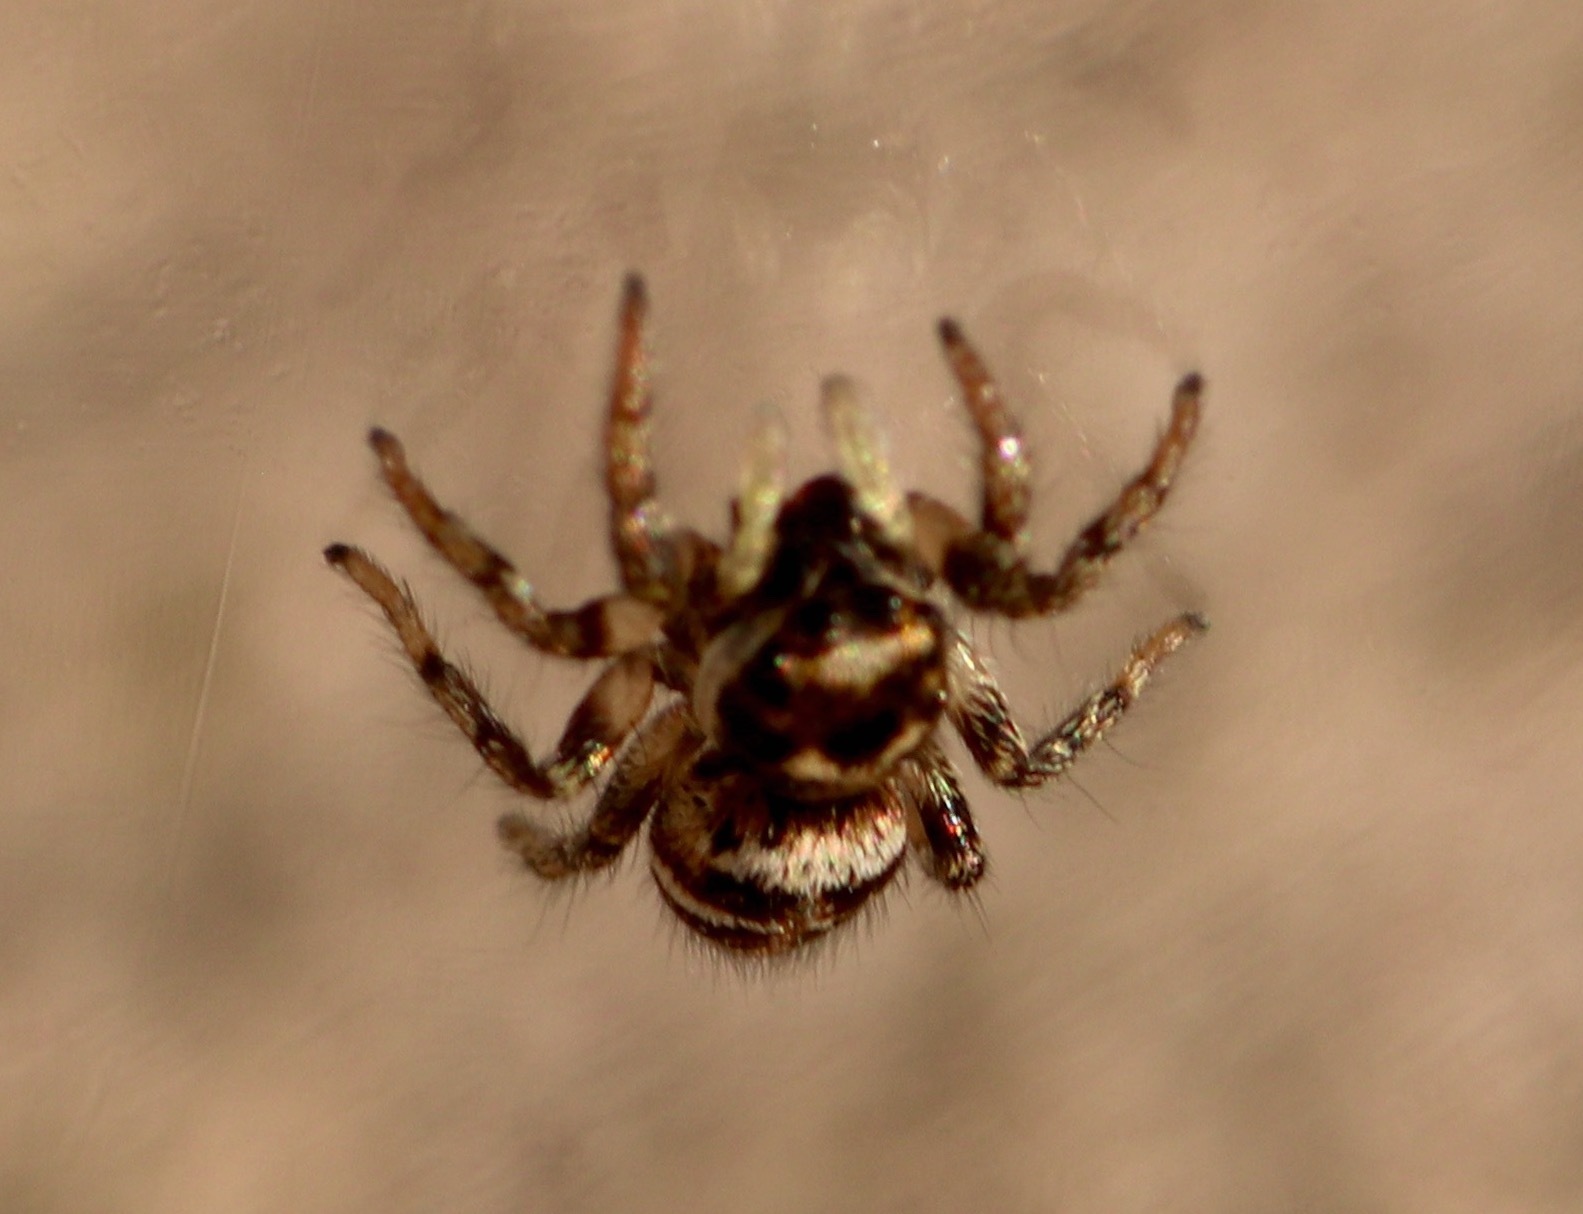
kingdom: Animalia
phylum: Arthropoda
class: Arachnida
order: Araneae
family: Salticidae
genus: Salticus
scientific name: Salticus scenicus
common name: Zebra jumper
